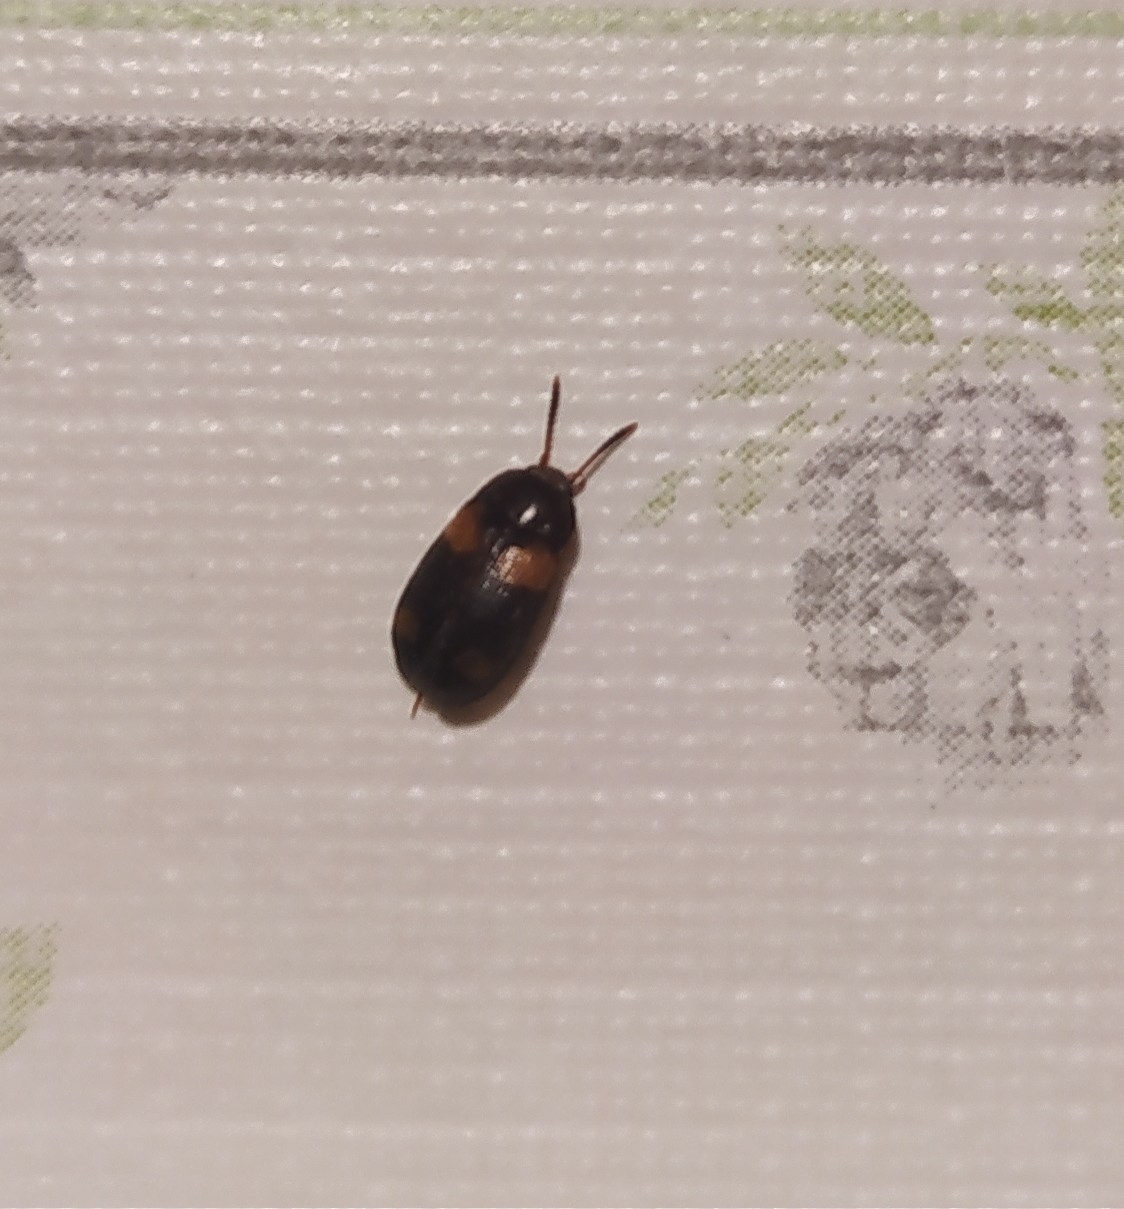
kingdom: Animalia
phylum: Arthropoda
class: Insecta
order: Coleoptera
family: Mycetophagidae
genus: Mycetophagus
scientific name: Mycetophagus quadripustulatus
